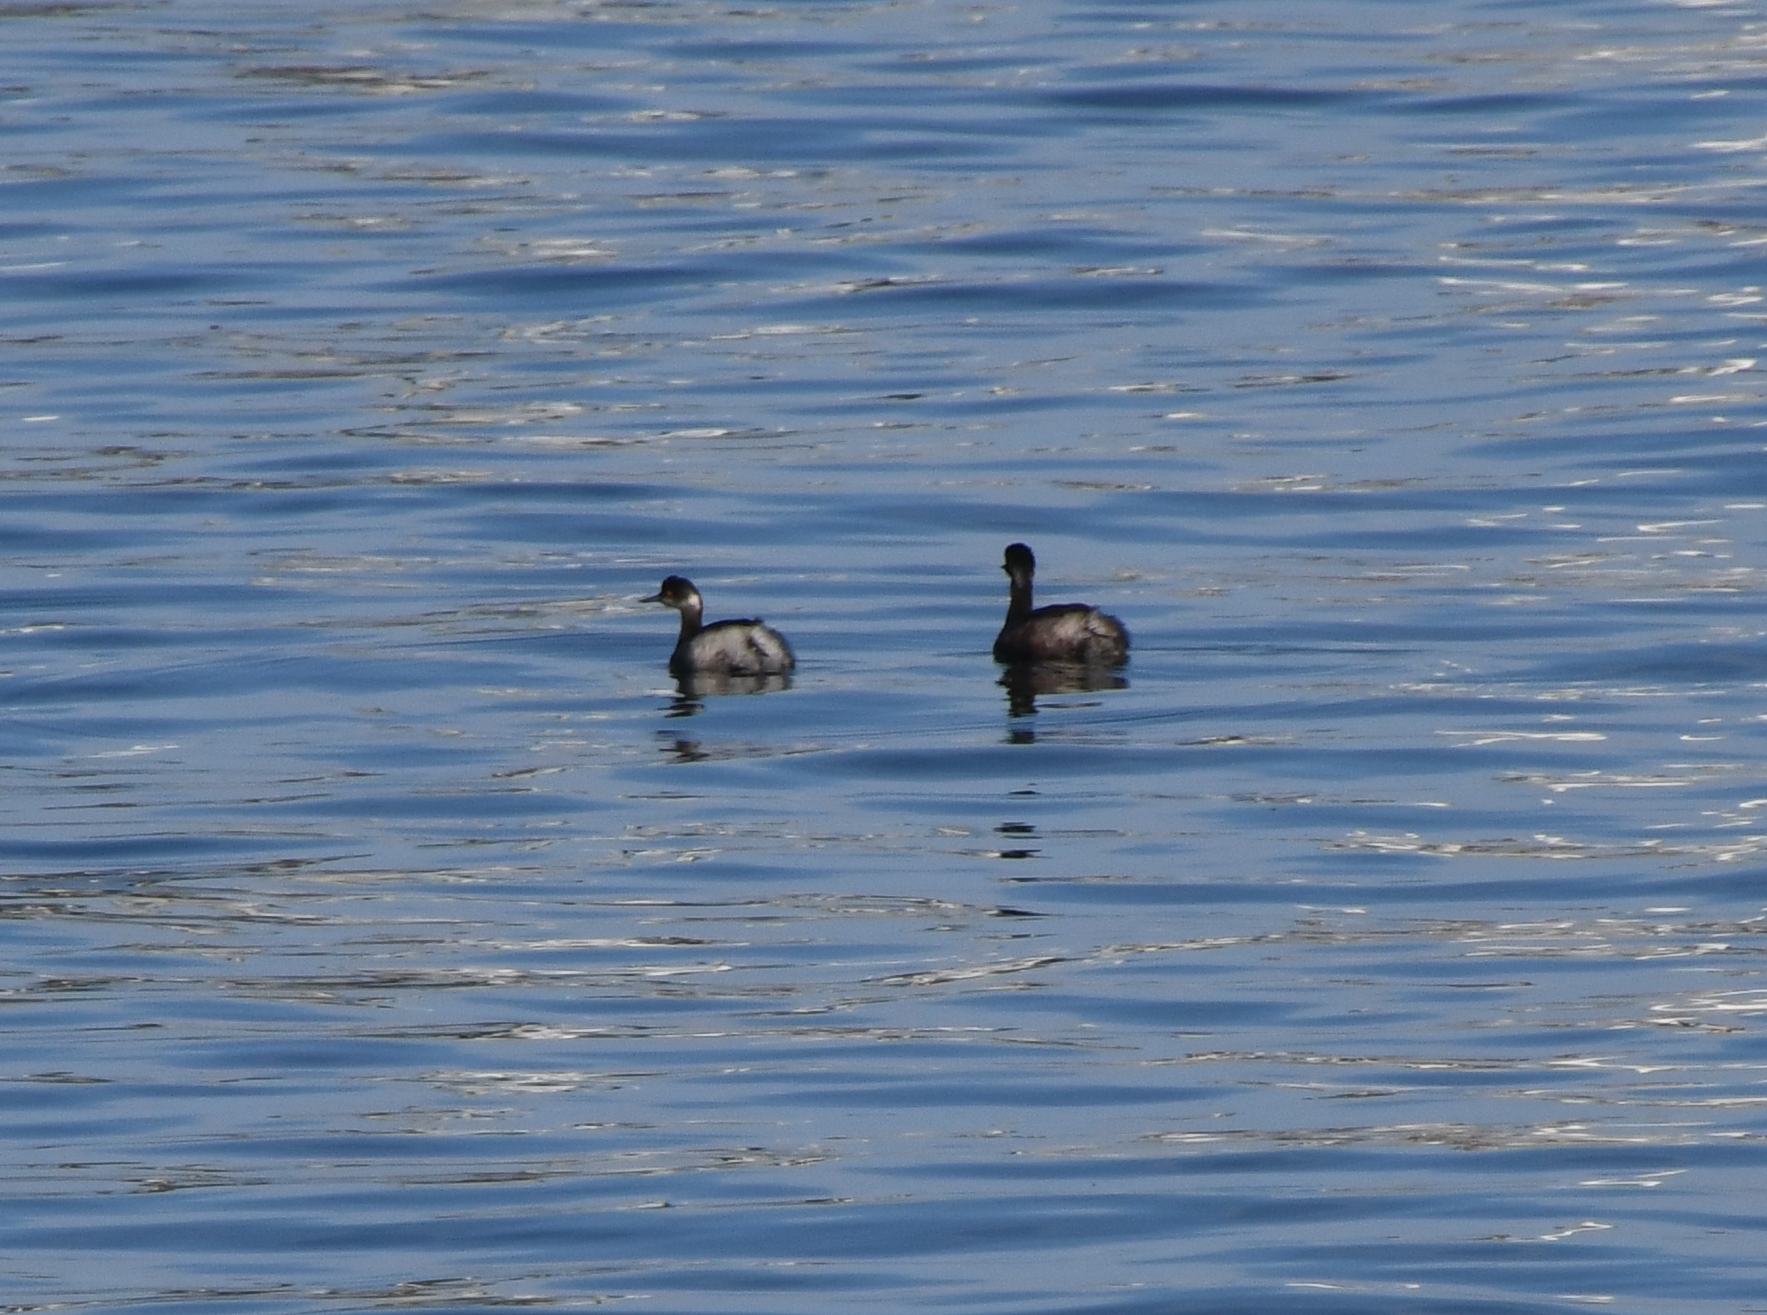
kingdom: Animalia
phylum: Chordata
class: Aves
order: Podicipediformes
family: Podicipedidae
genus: Podiceps
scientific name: Podiceps nigricollis
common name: Black-necked grebe
